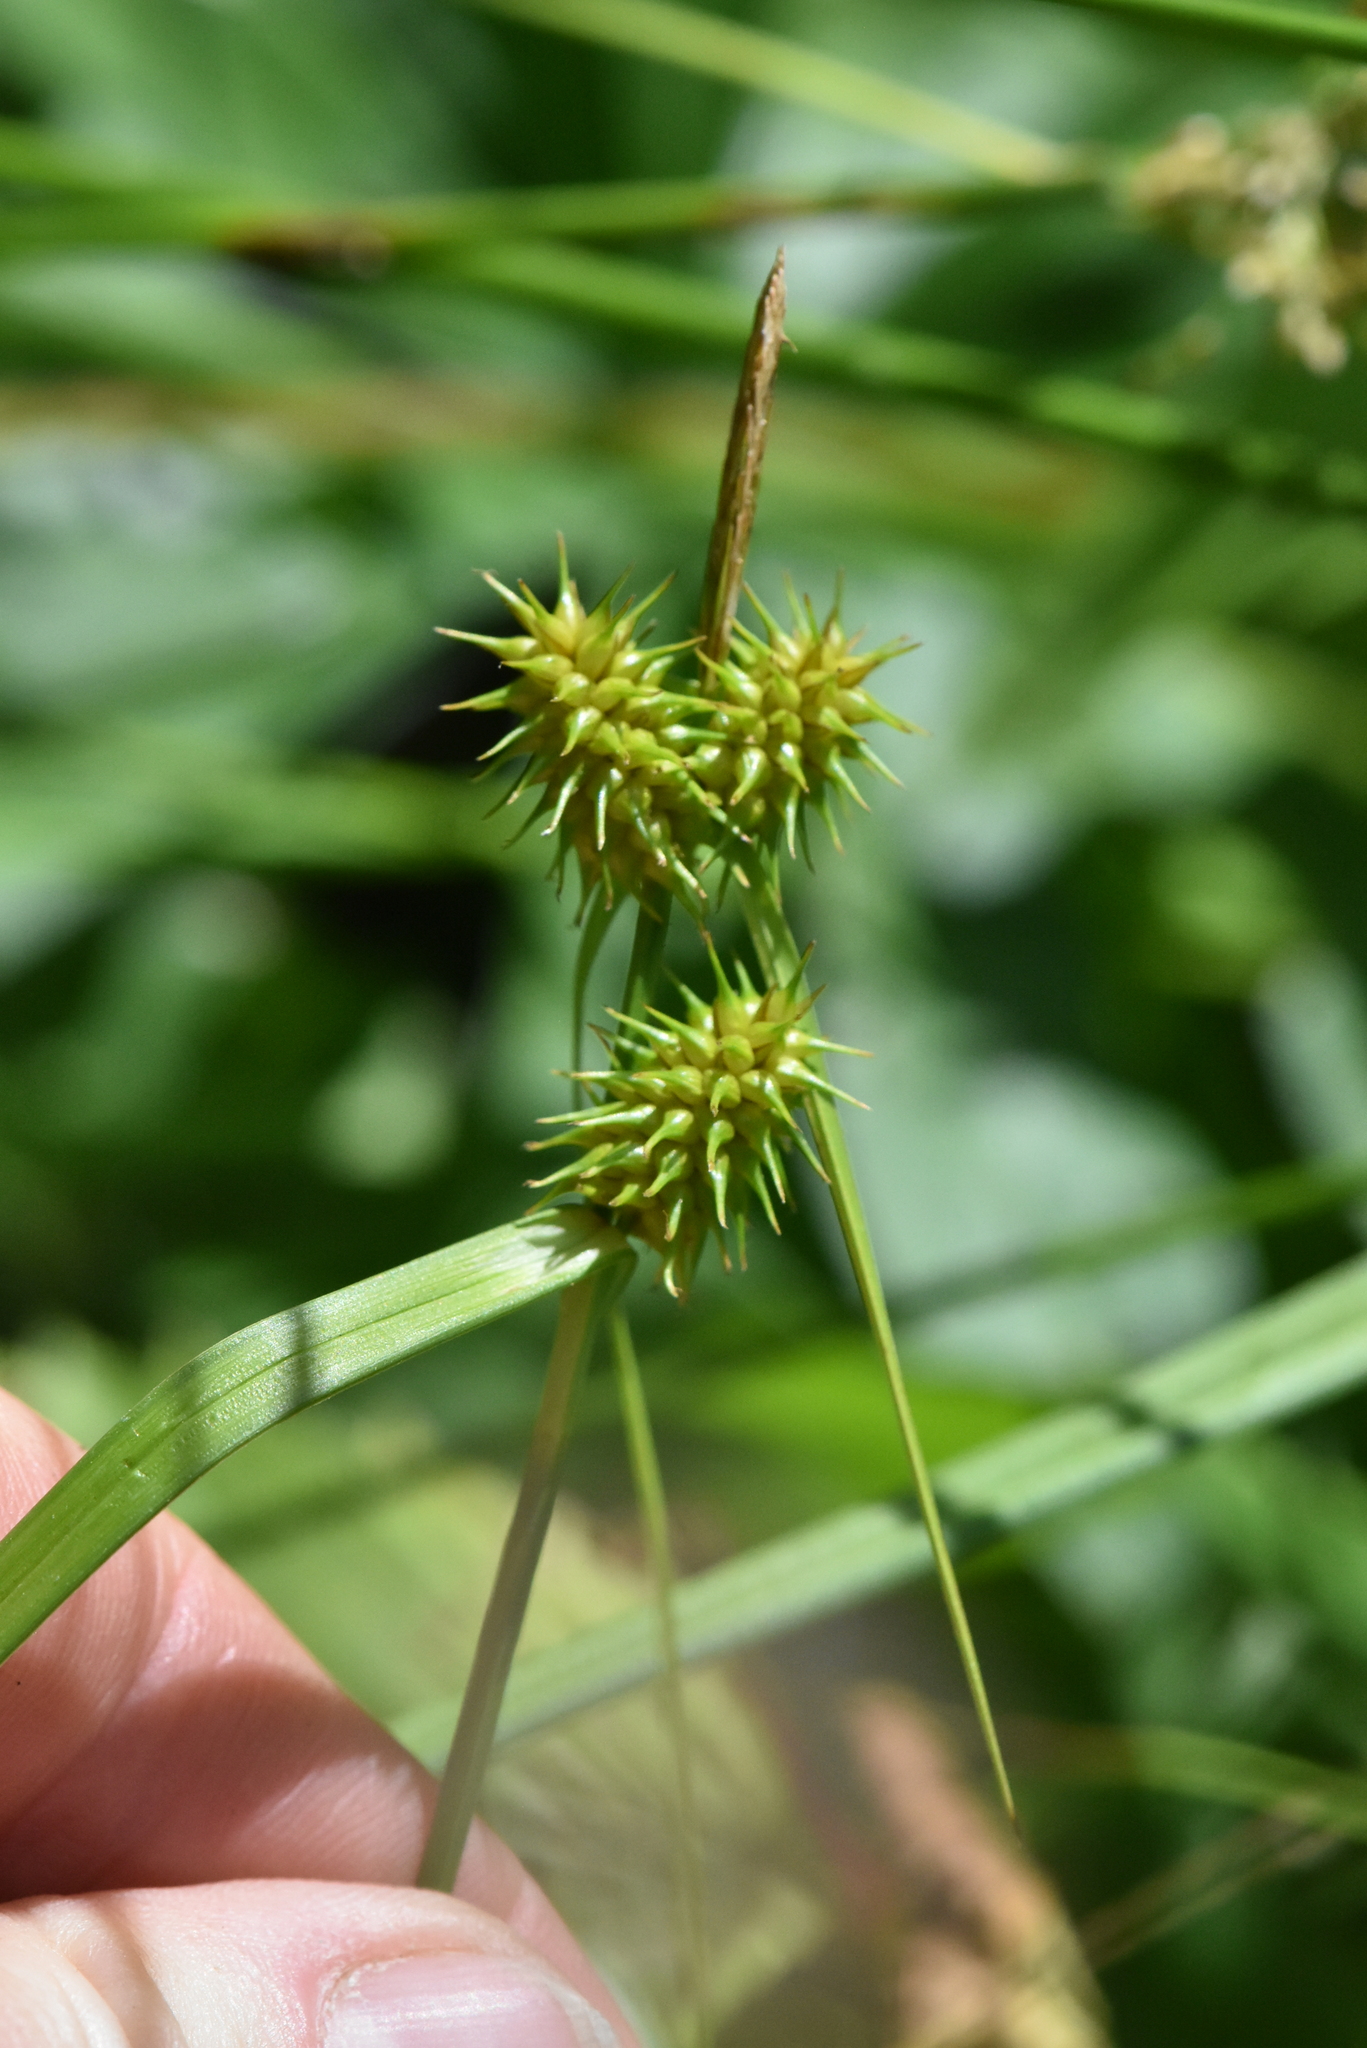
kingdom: Plantae
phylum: Tracheophyta
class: Liliopsida
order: Poales
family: Cyperaceae
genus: Carex
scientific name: Carex flava
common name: Large yellow-sedge
